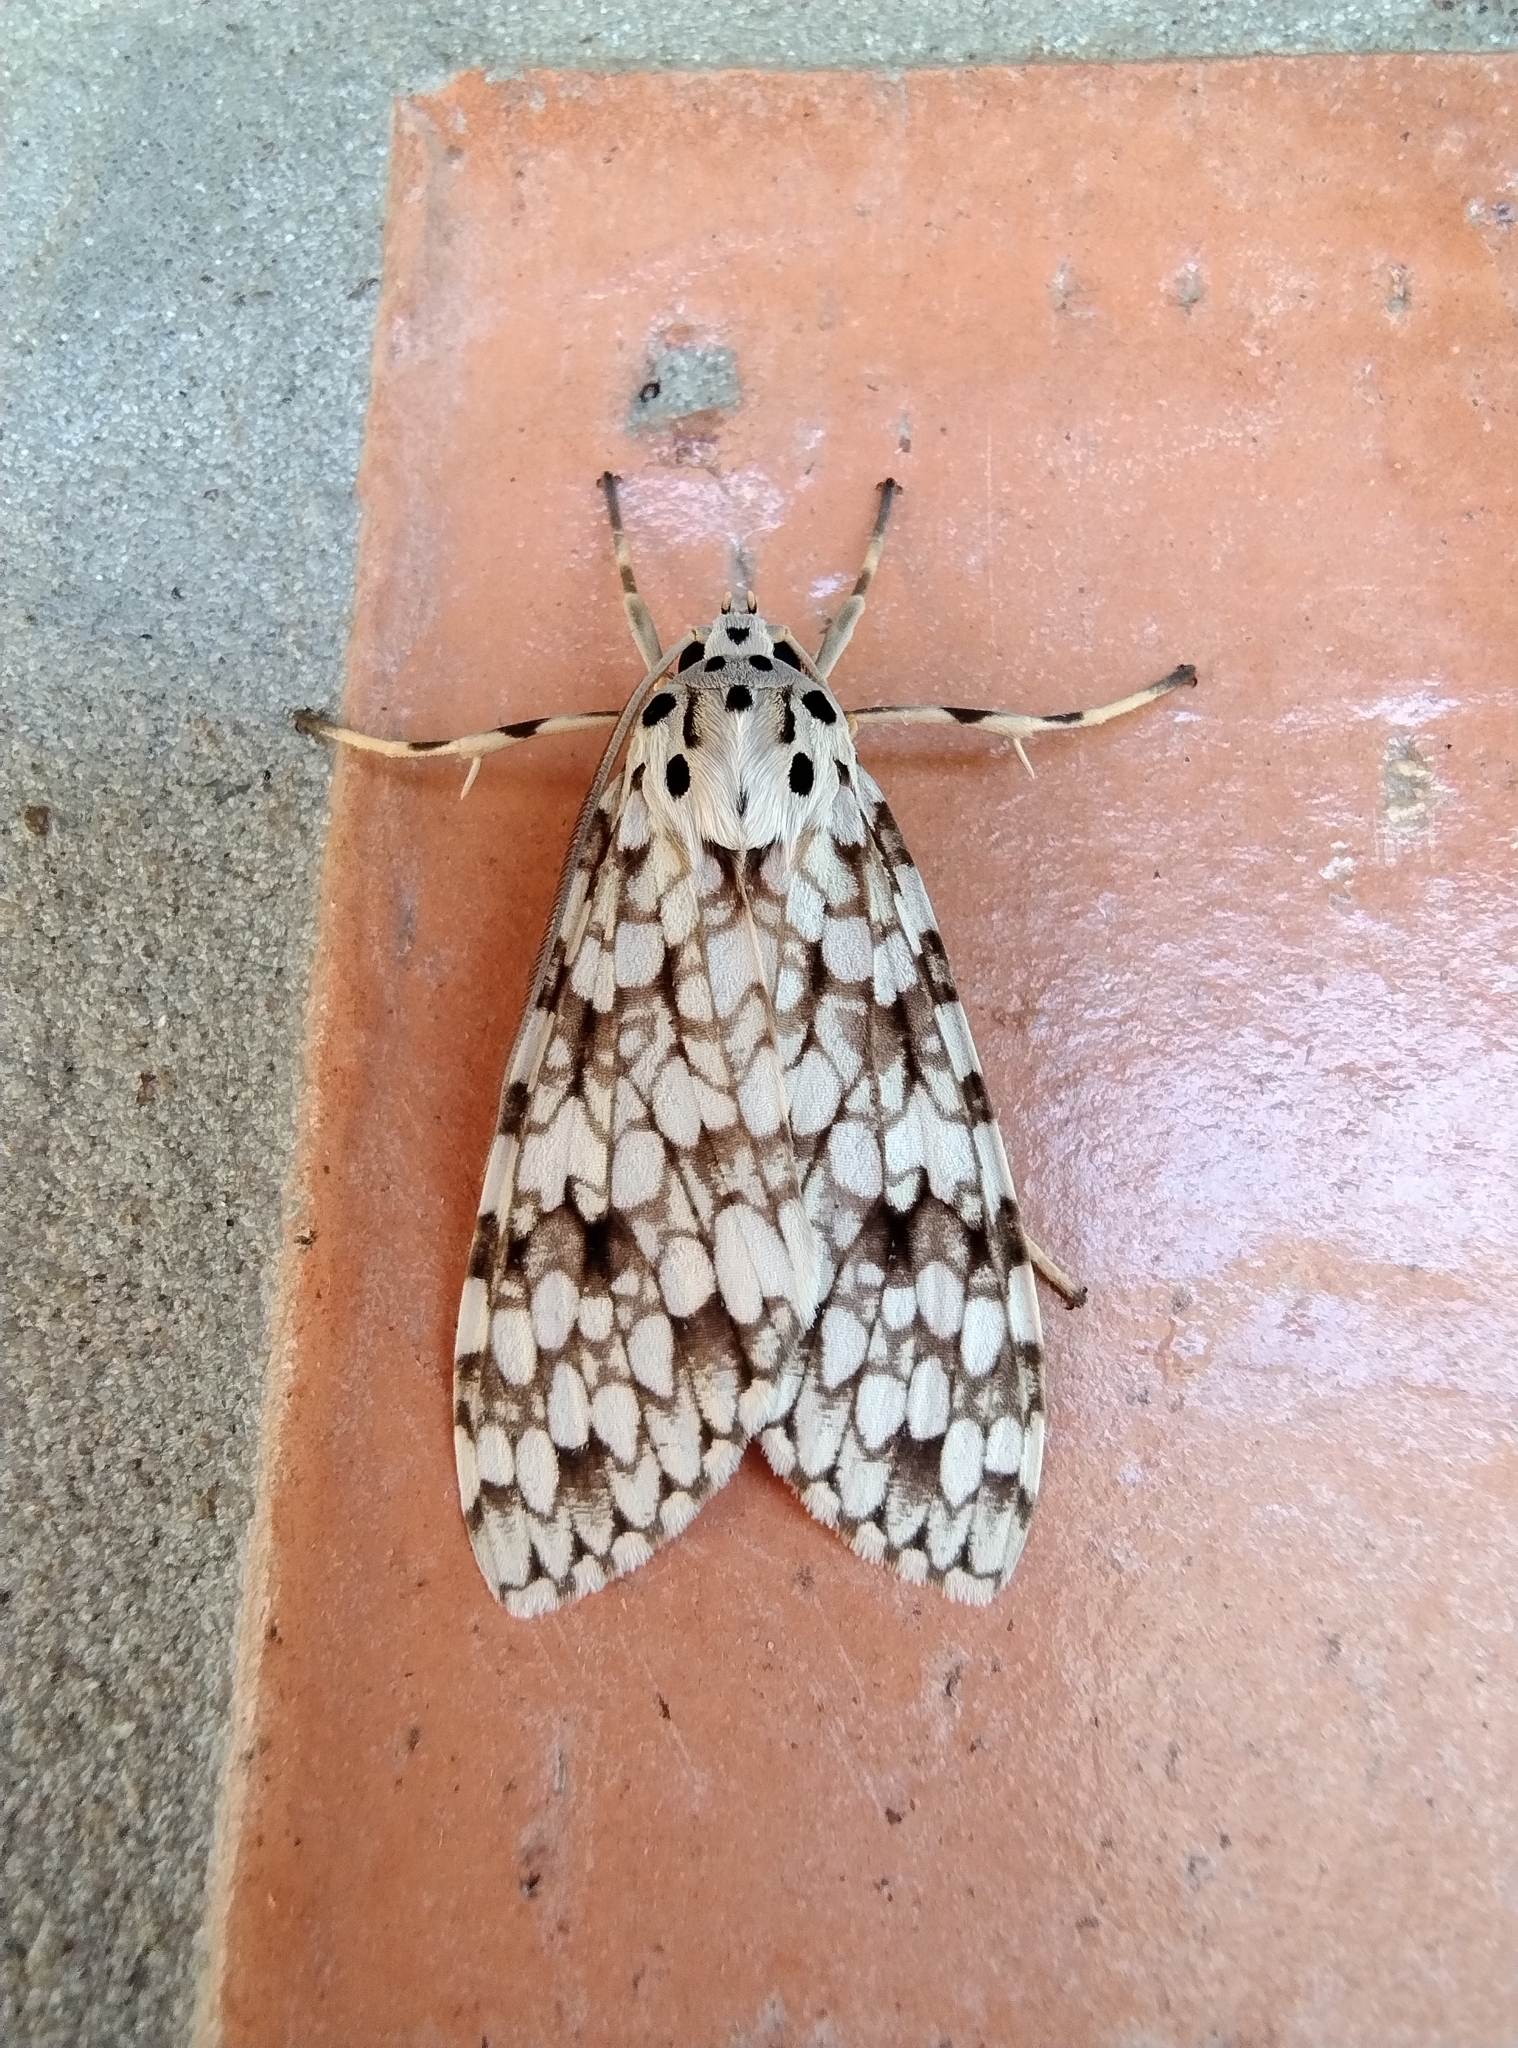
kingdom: Animalia
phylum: Arthropoda
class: Insecta
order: Lepidoptera
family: Erebidae
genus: Carales
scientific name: Carales astur
